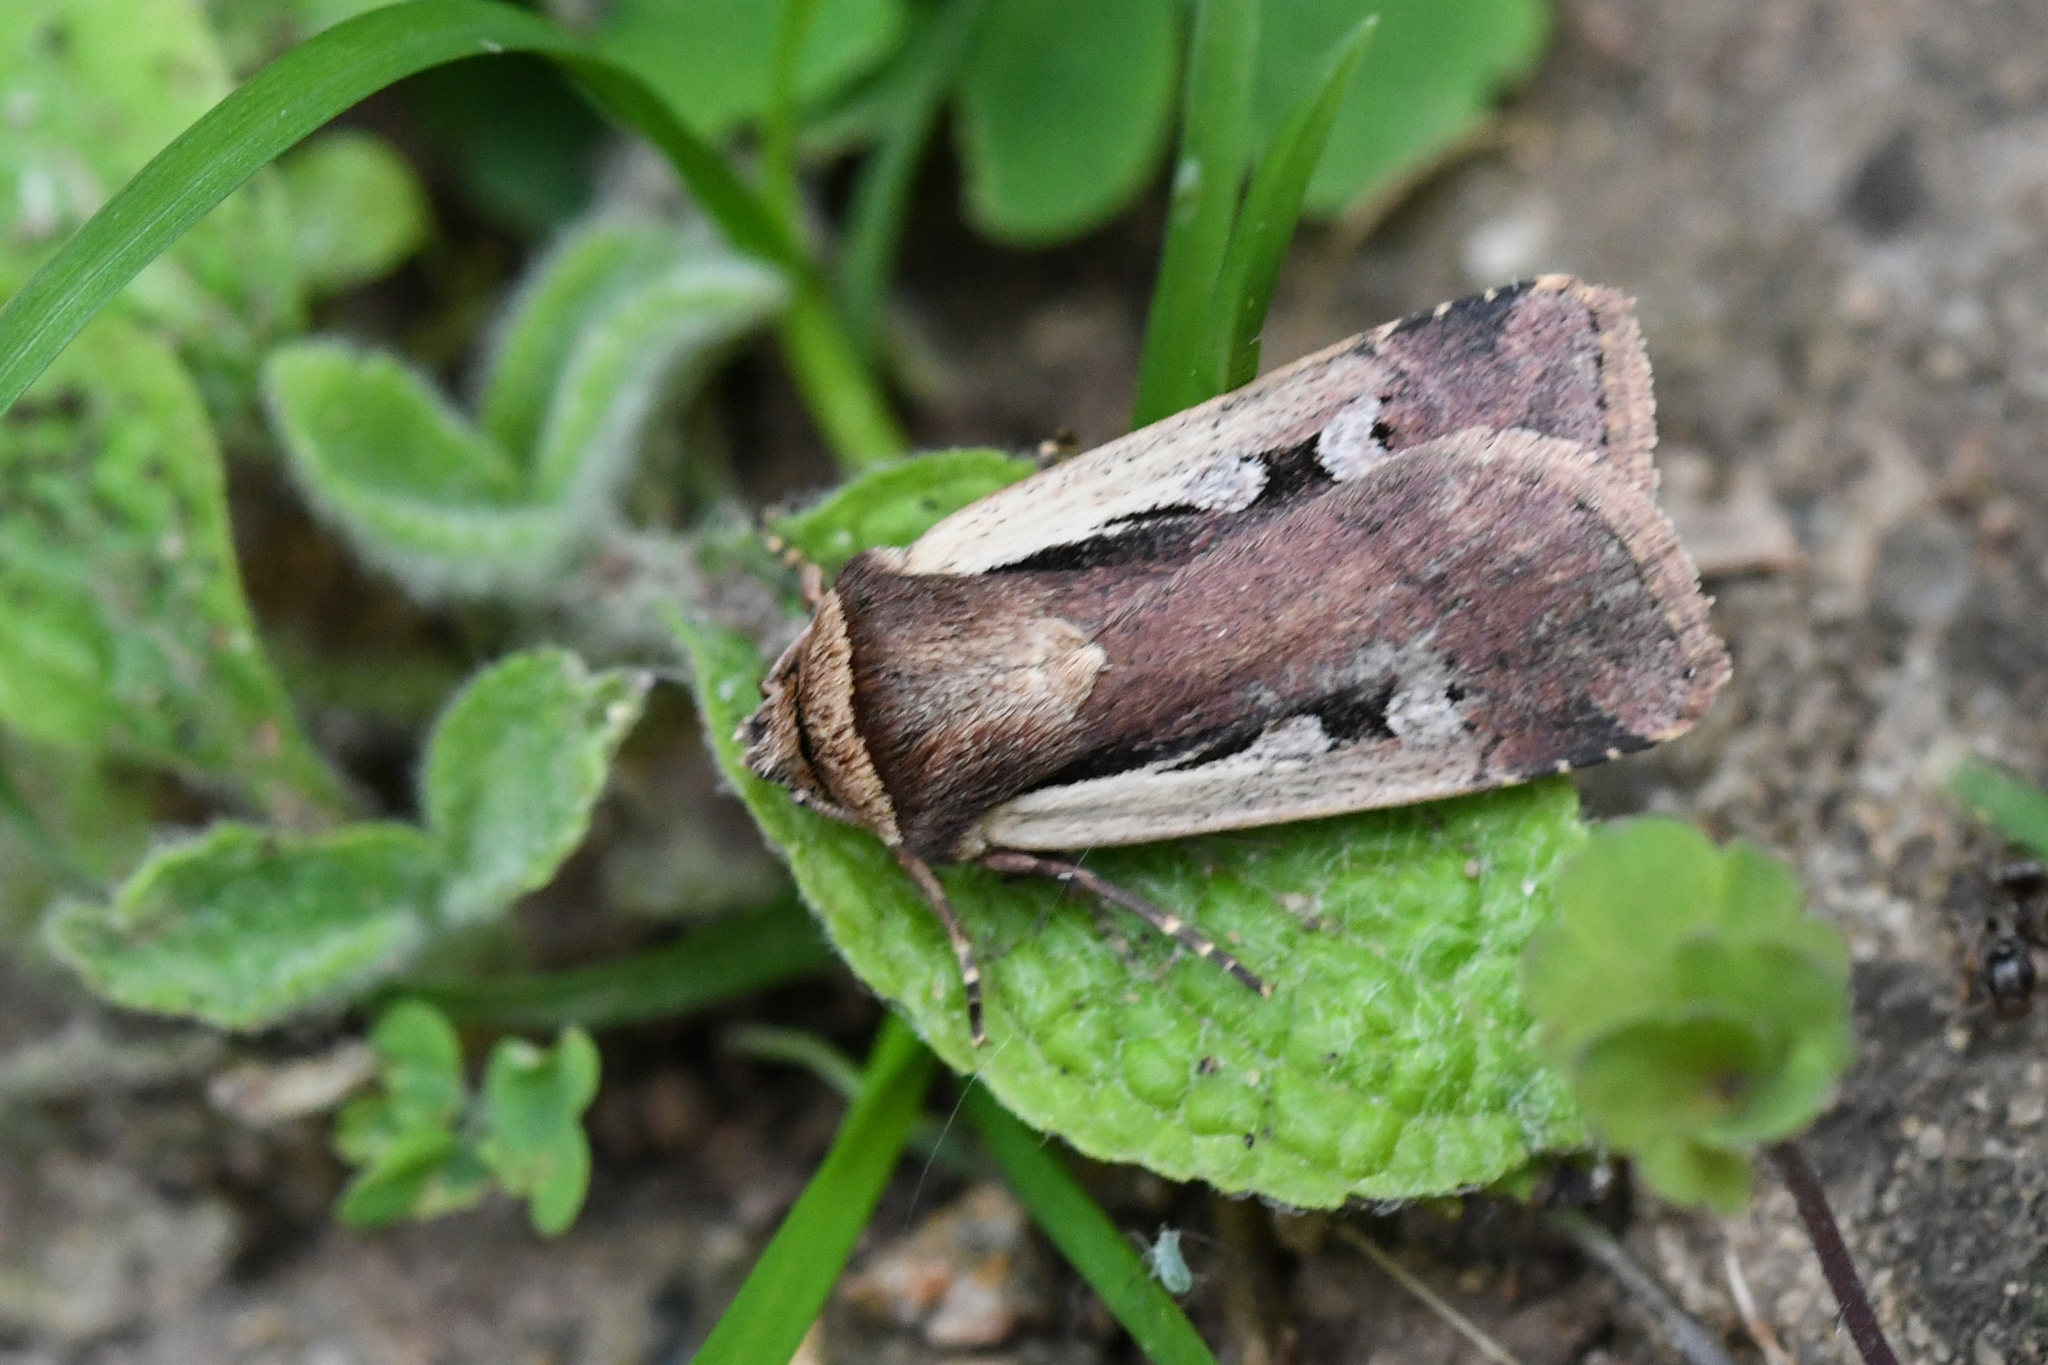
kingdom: Animalia
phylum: Arthropoda
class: Insecta
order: Lepidoptera
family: Noctuidae
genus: Ochropleura
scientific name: Ochropleura plecta
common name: Flame shoulder
